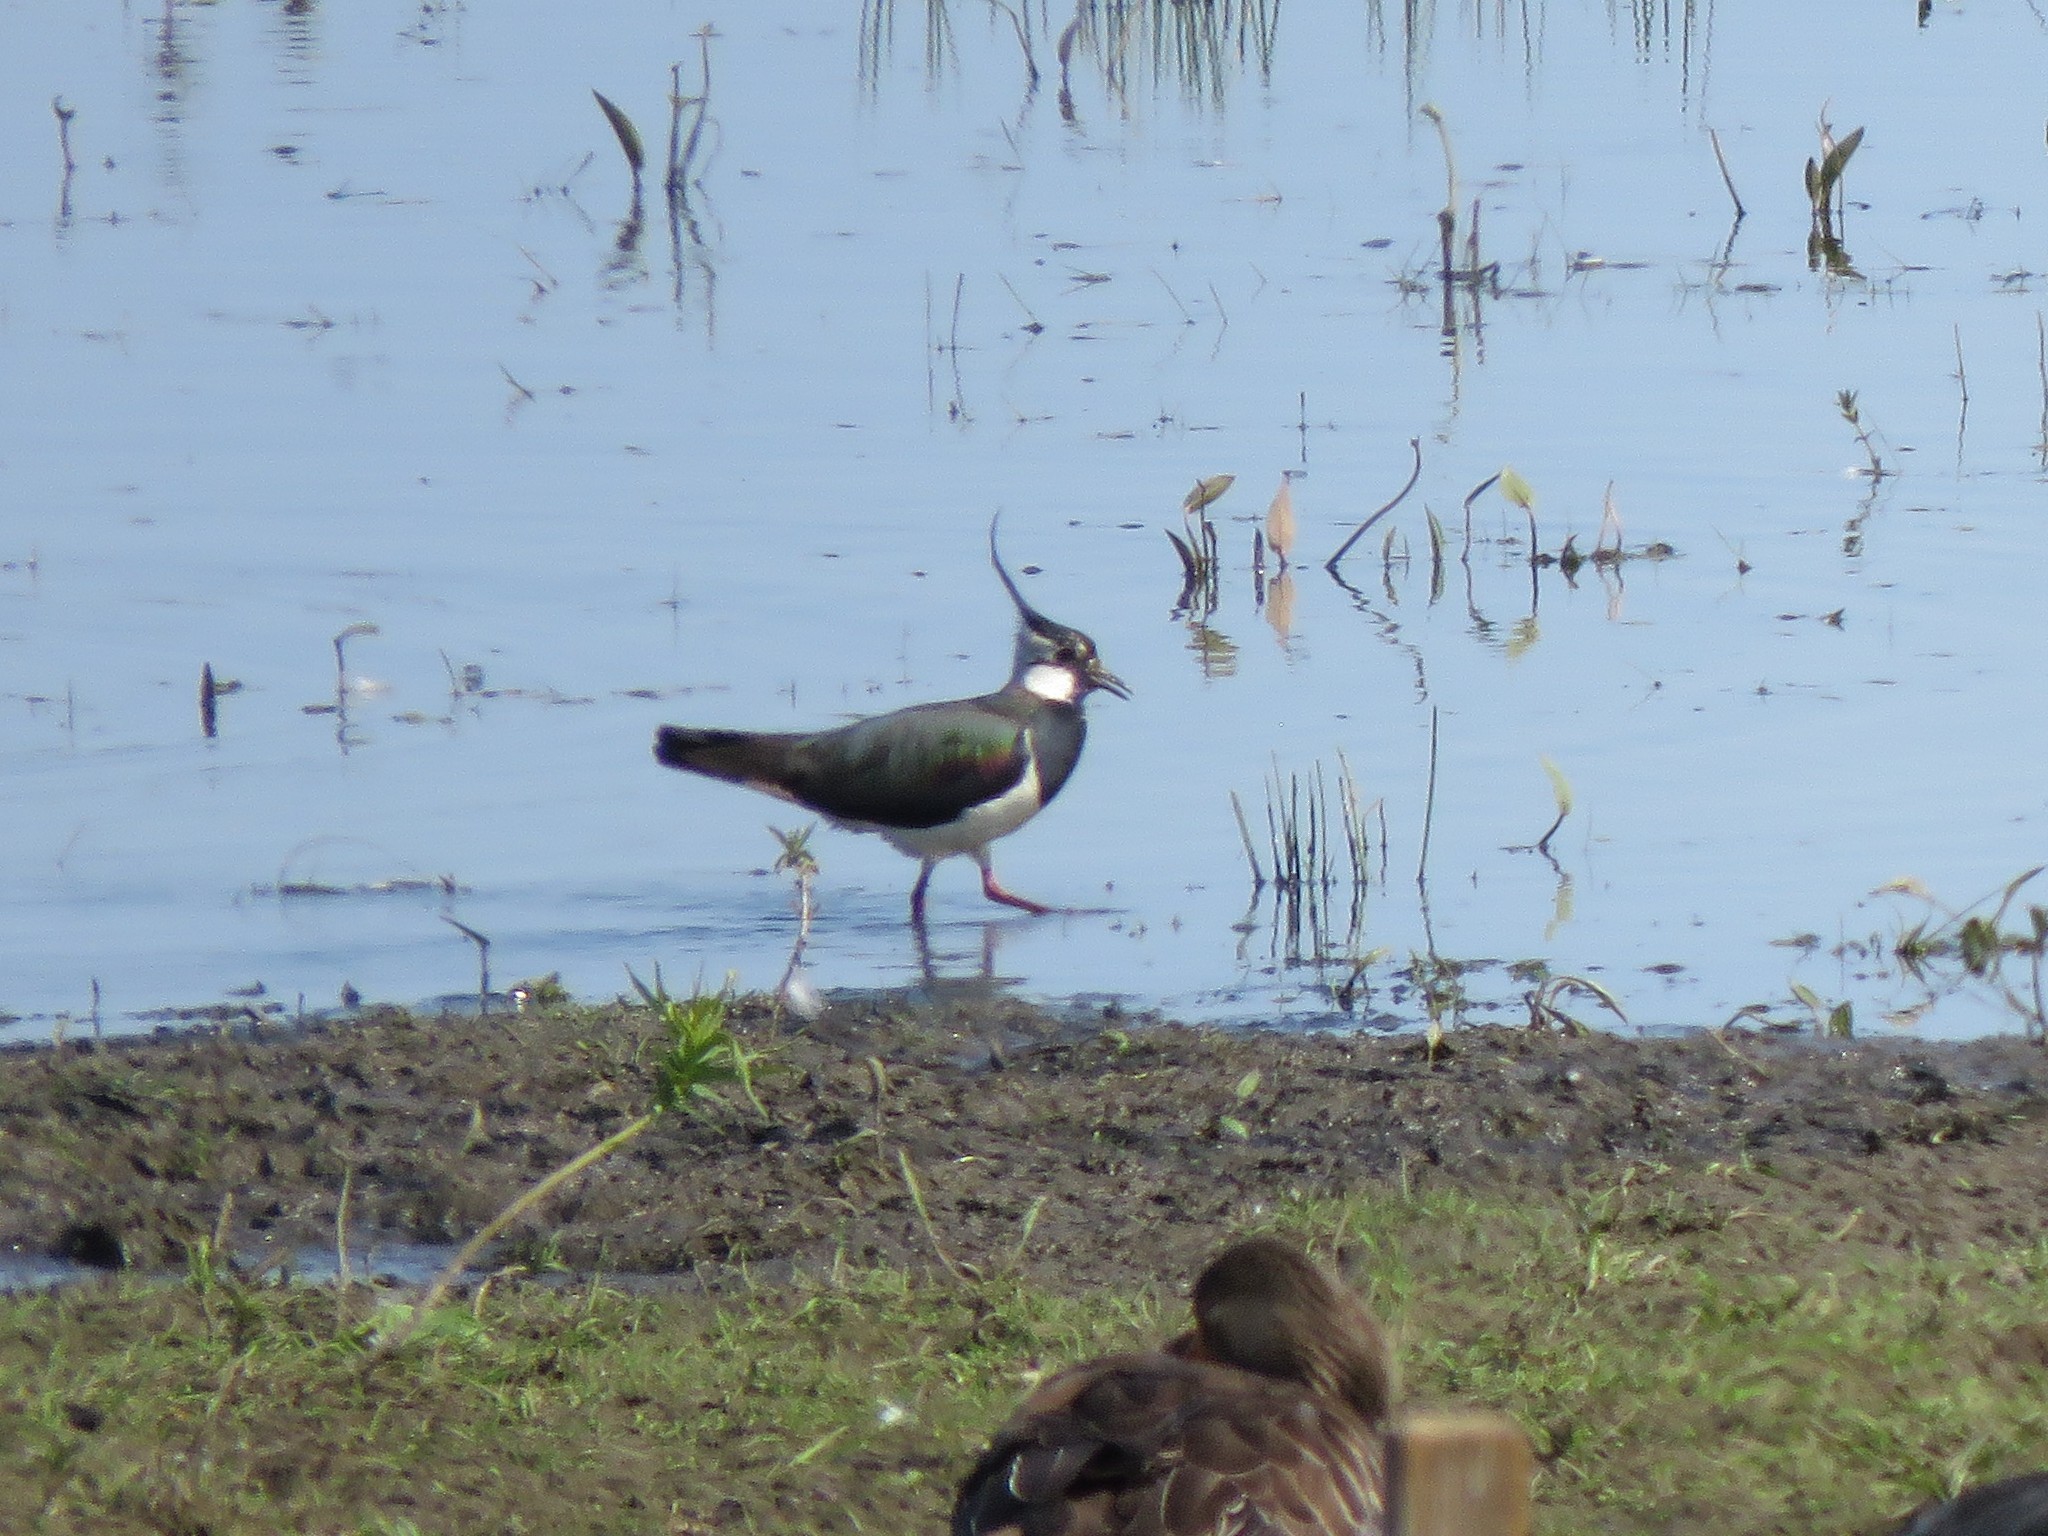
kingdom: Animalia
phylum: Chordata
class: Aves
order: Charadriiformes
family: Charadriidae
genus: Vanellus
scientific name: Vanellus vanellus
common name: Northern lapwing
